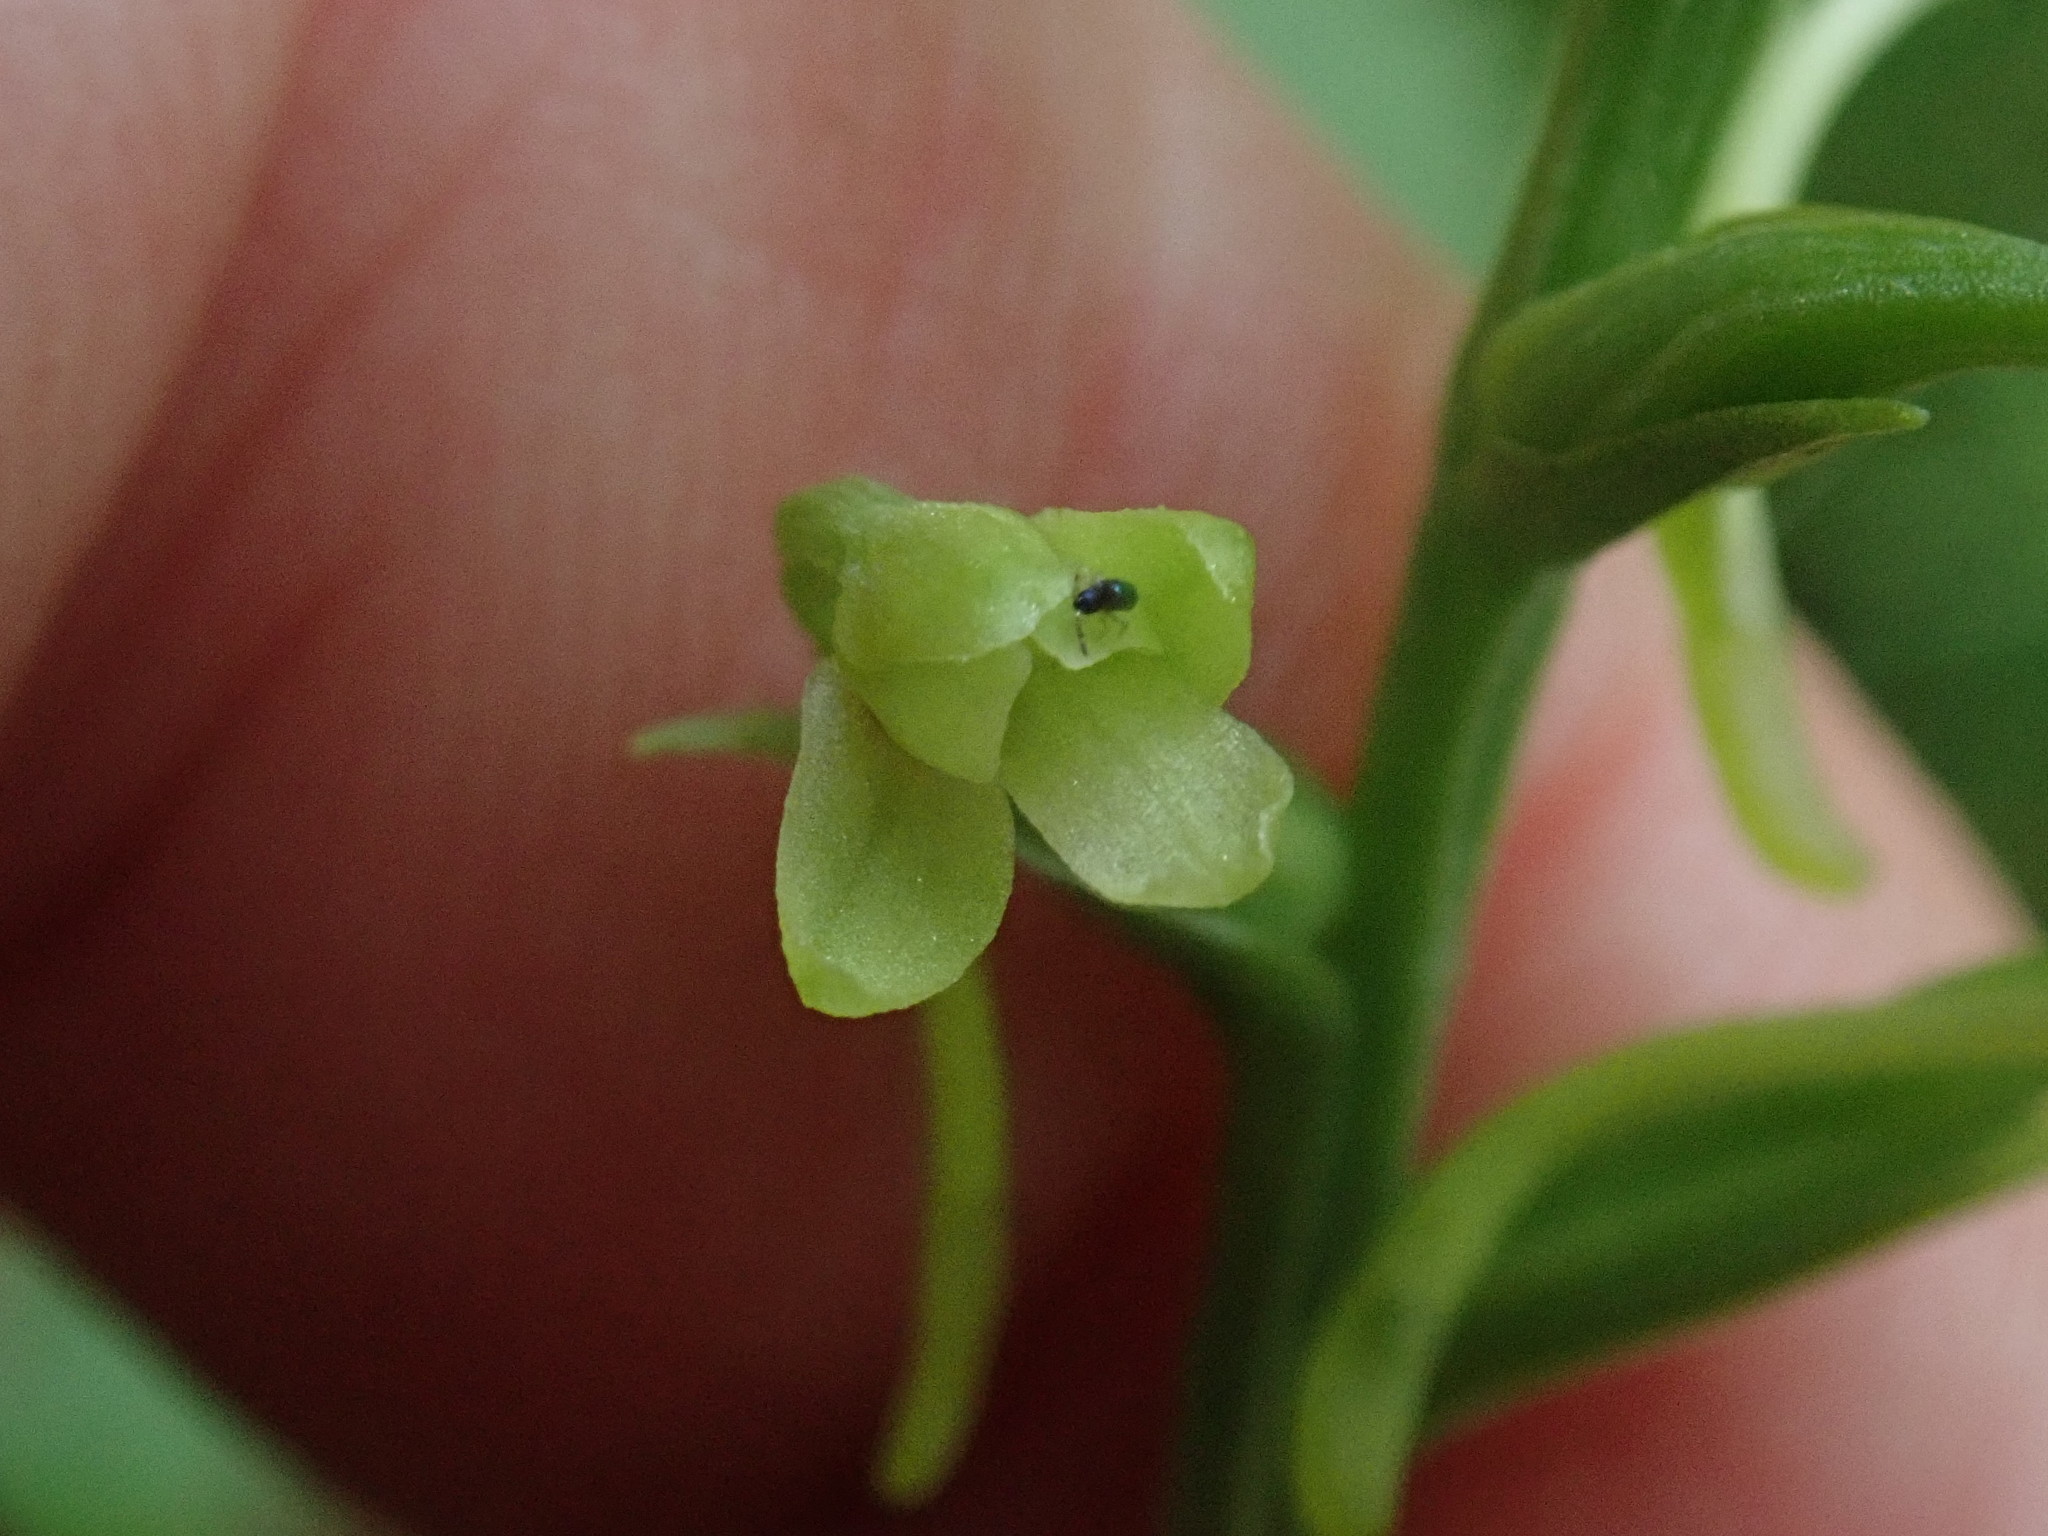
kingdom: Plantae
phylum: Tracheophyta
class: Liliopsida
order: Asparagales
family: Orchidaceae
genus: Platanthera
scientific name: Platanthera clavellata
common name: Club-spur orchid
